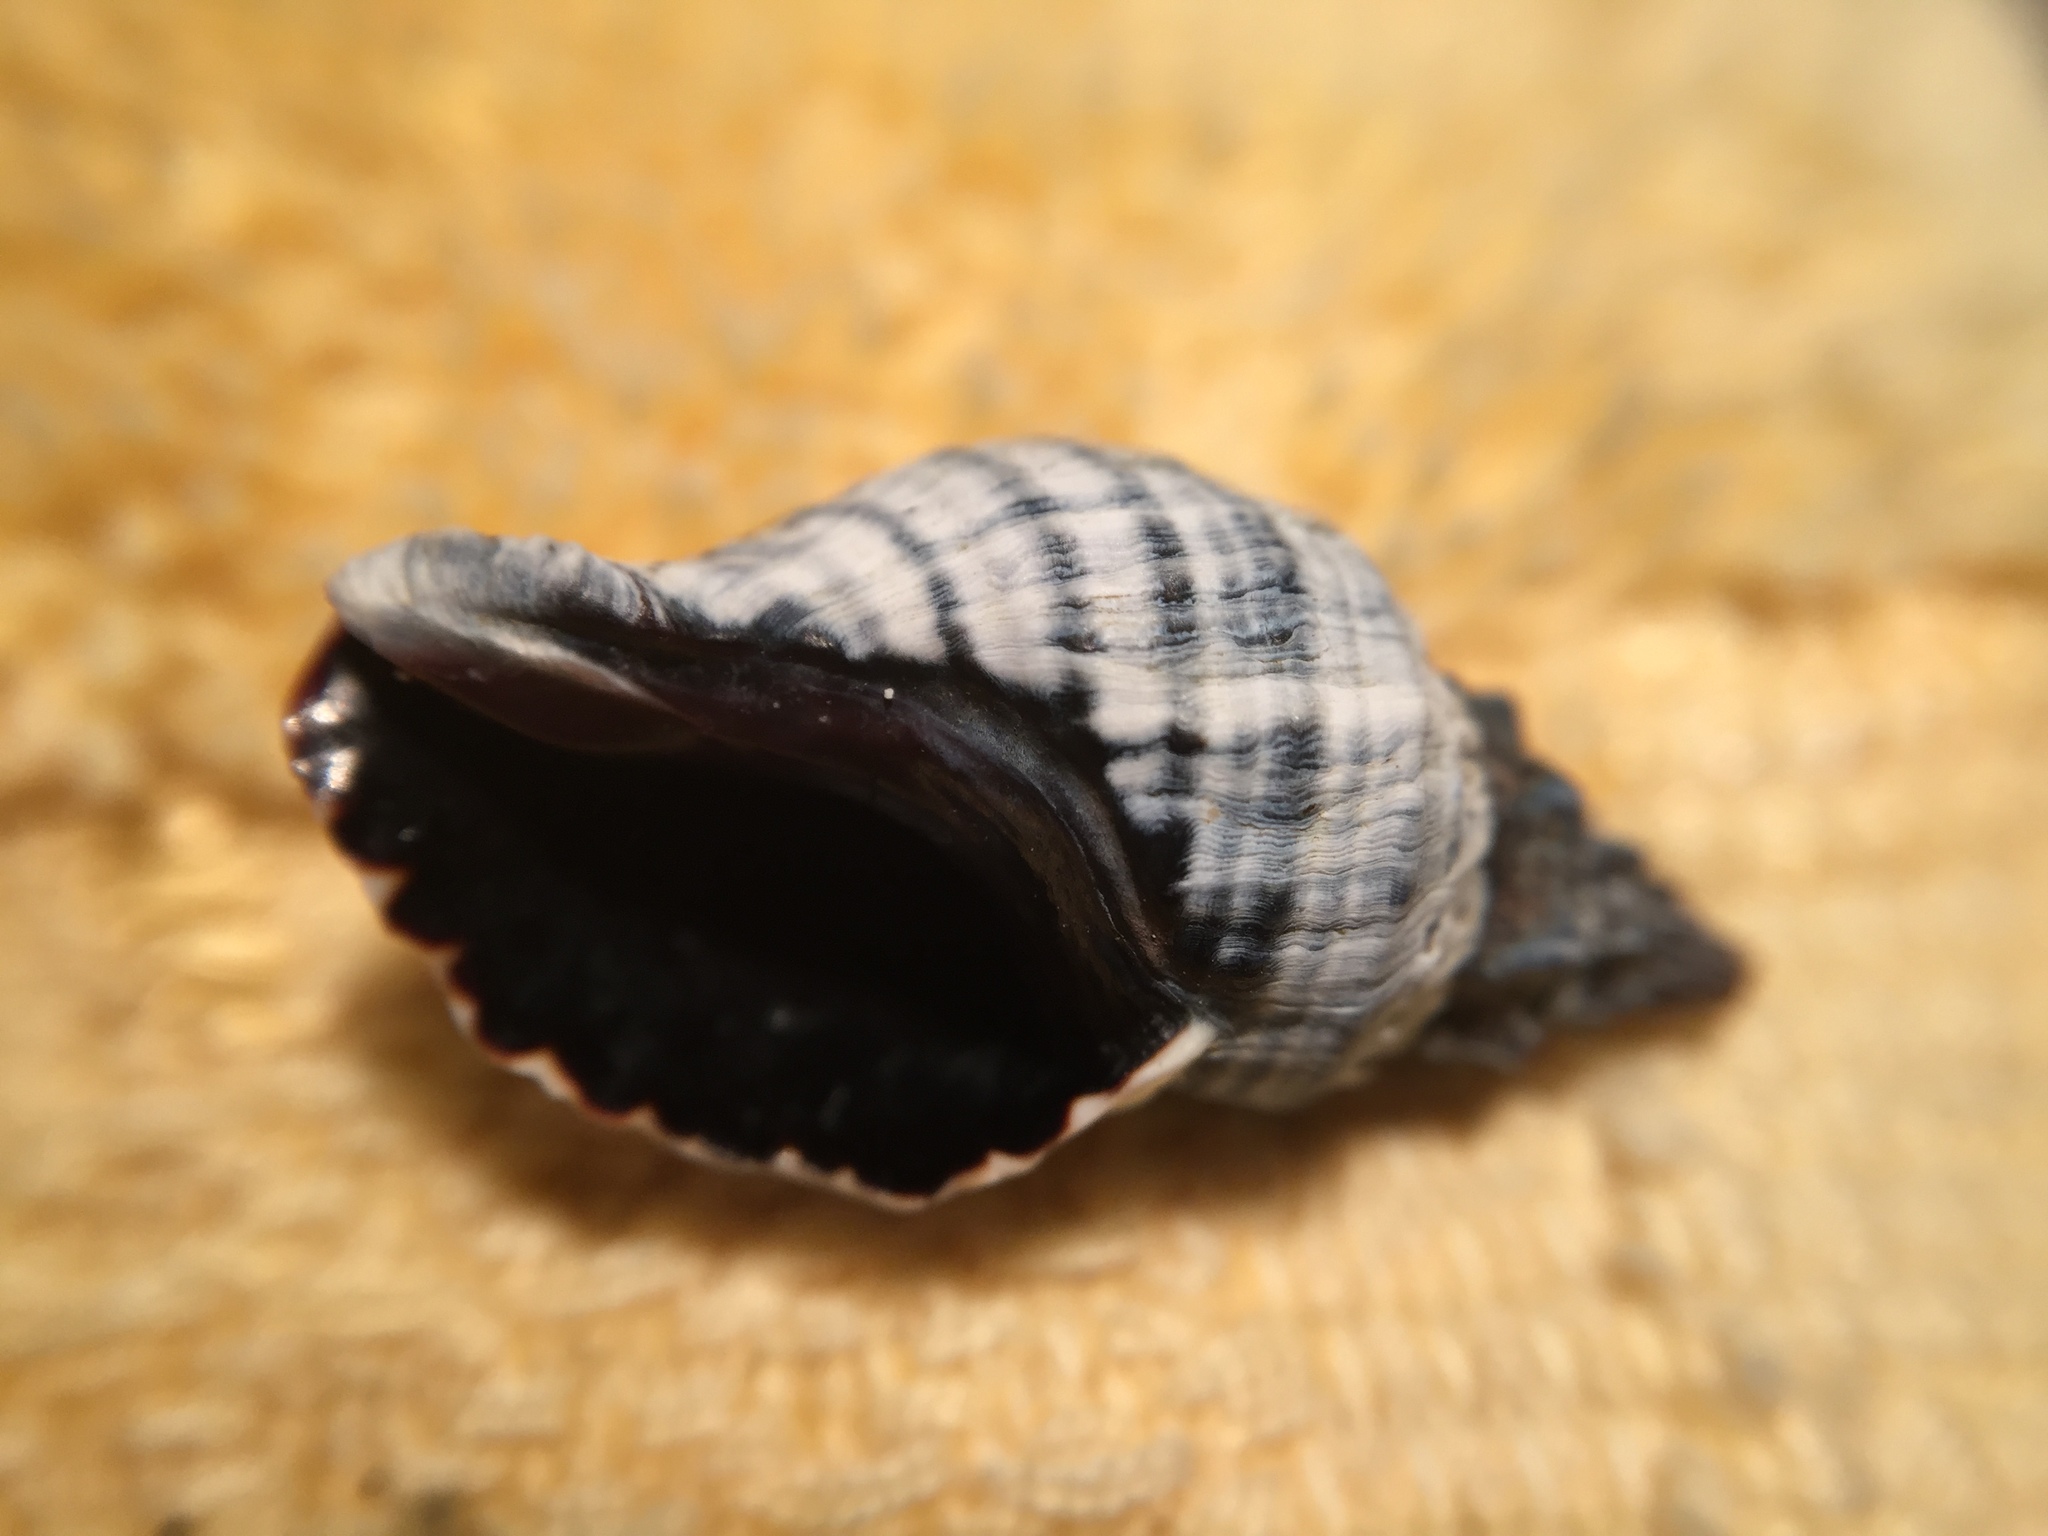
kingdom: Animalia
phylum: Mollusca
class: Gastropoda
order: Neogastropoda
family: Muricidae
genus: Haustrum
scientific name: Haustrum albomarginatum
